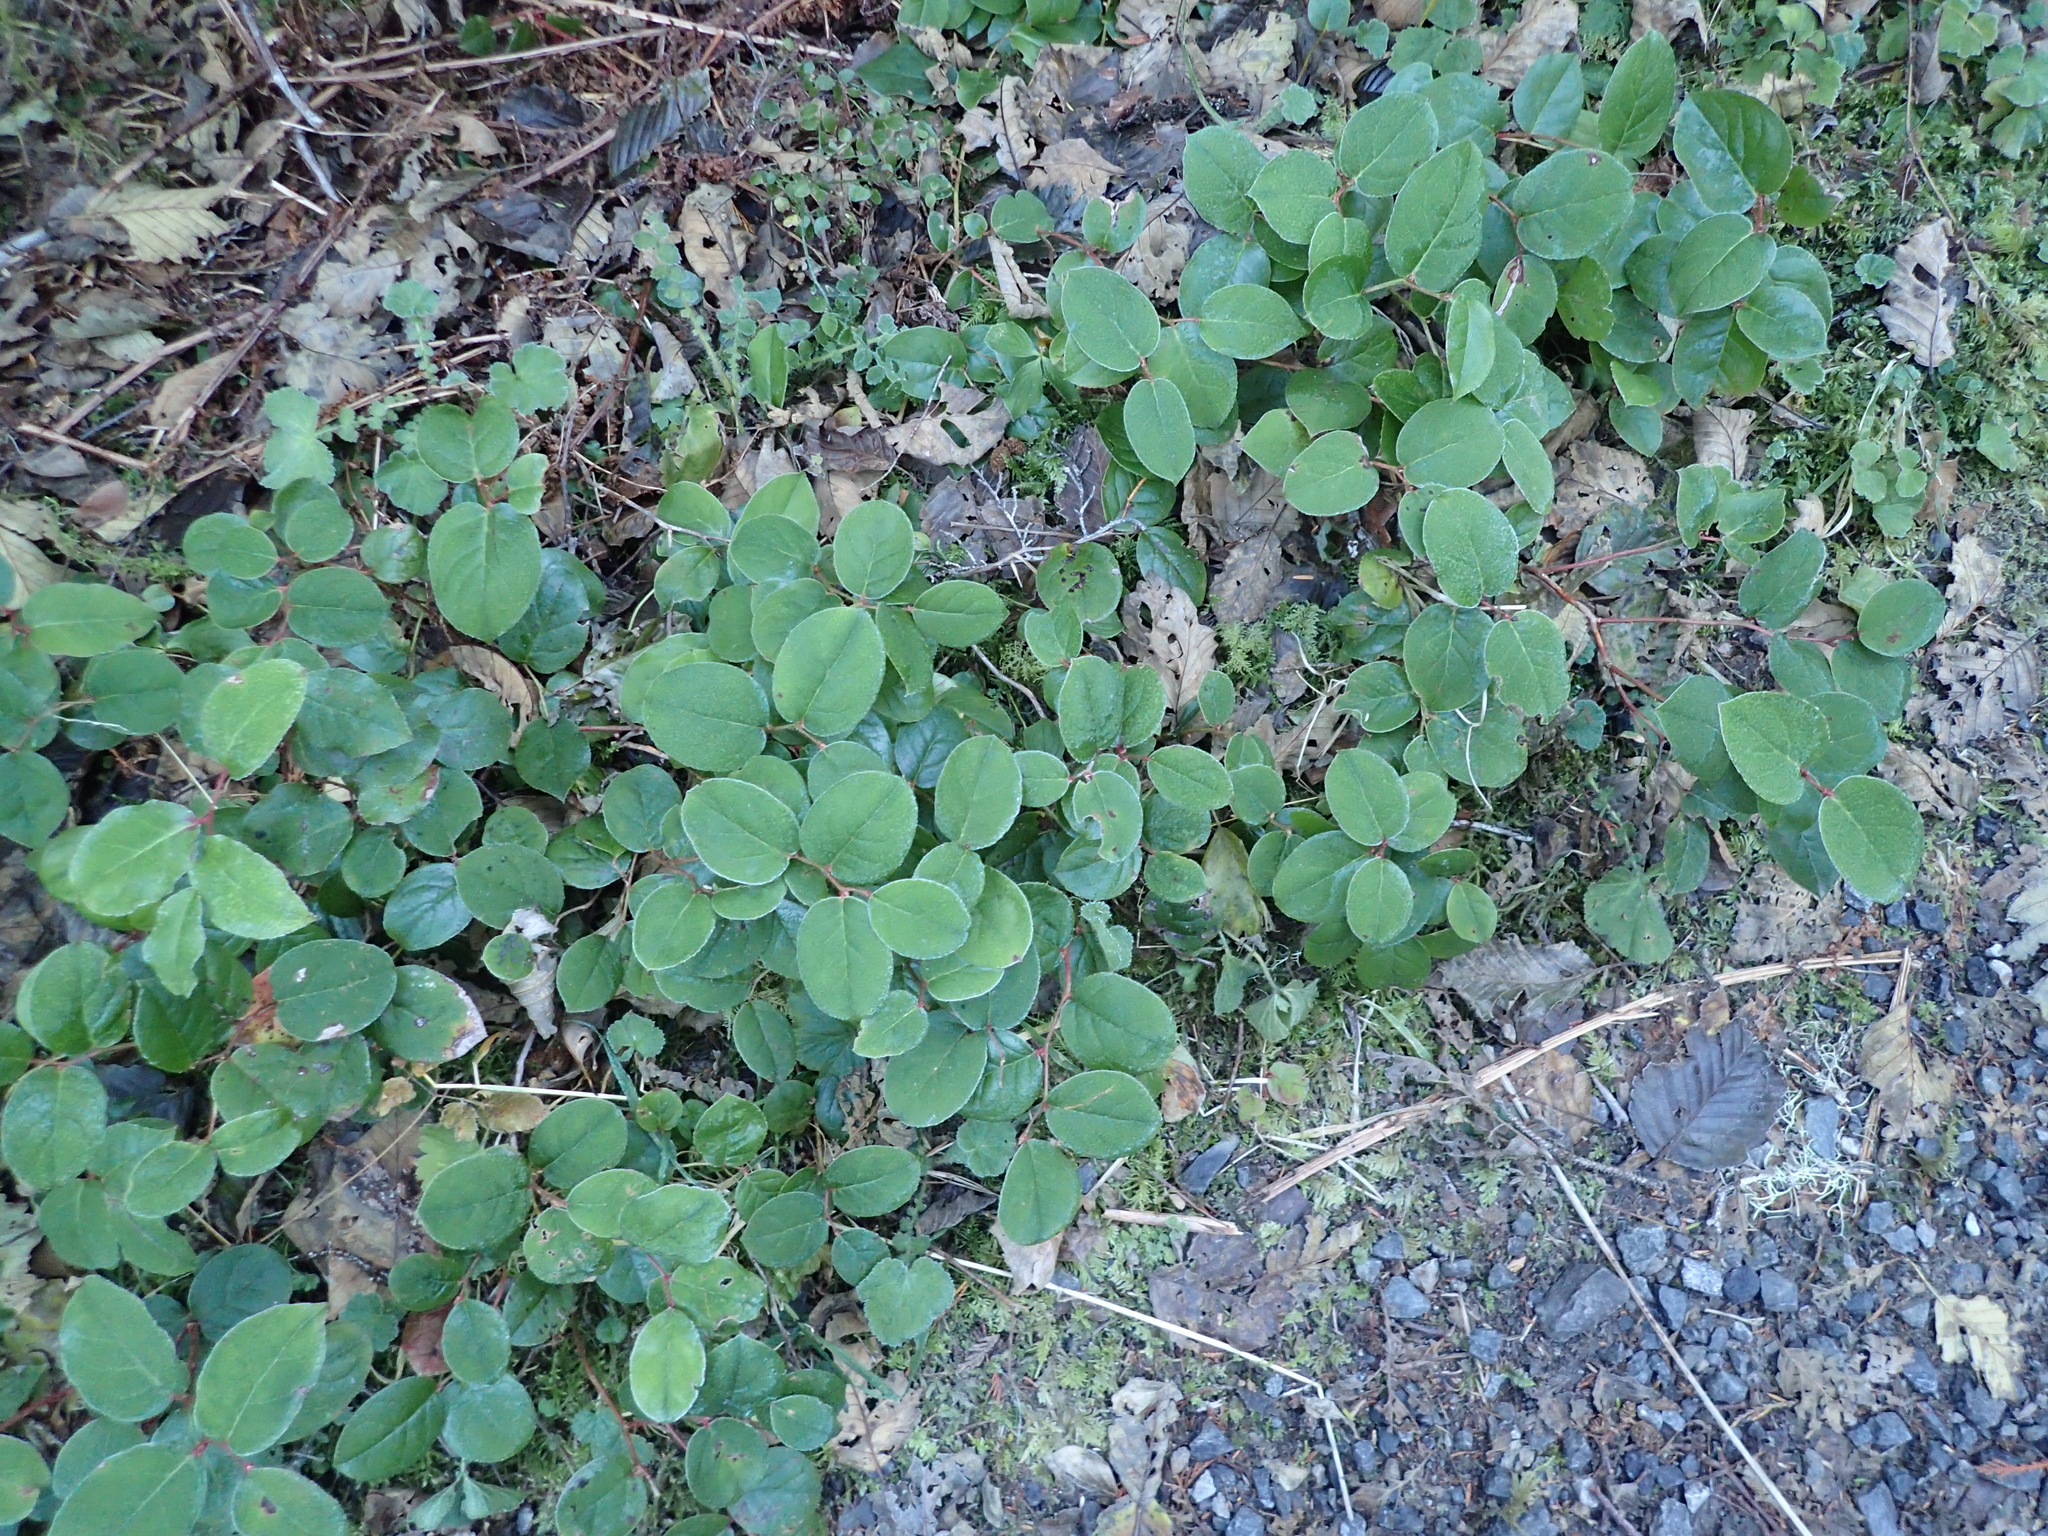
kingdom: Plantae
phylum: Tracheophyta
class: Magnoliopsida
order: Ericales
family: Ericaceae
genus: Gaultheria
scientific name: Gaultheria shallon
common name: Shallon
